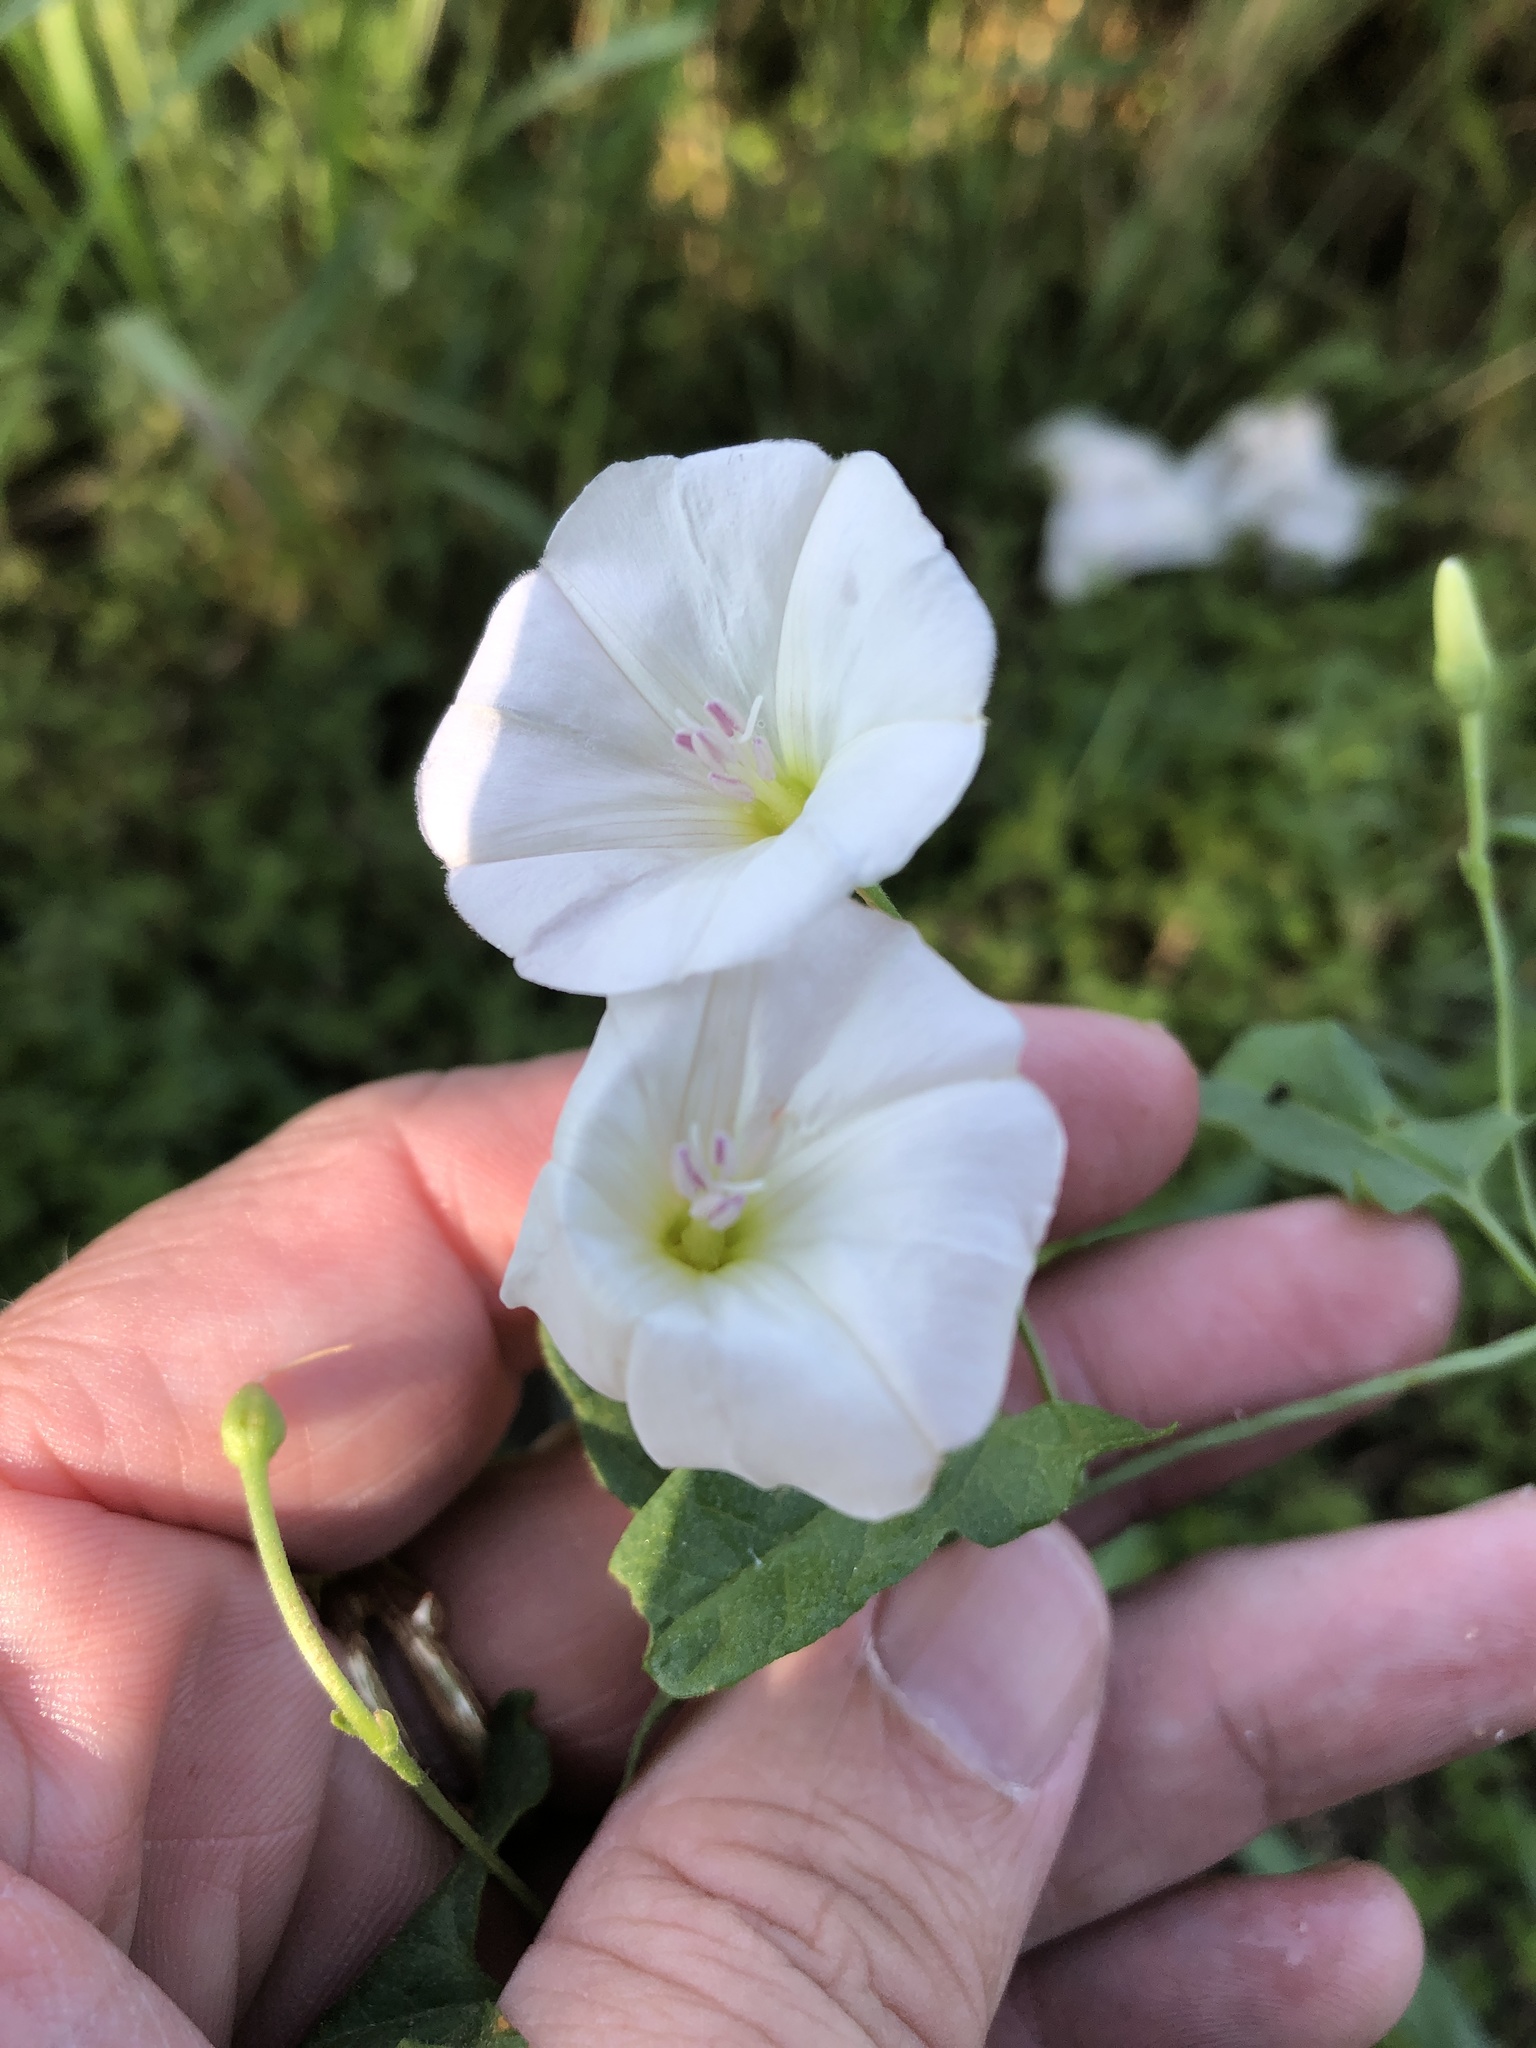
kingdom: Plantae
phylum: Tracheophyta
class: Magnoliopsida
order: Solanales
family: Convolvulaceae
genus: Convolvulus
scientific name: Convolvulus arvensis
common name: Field bindweed
